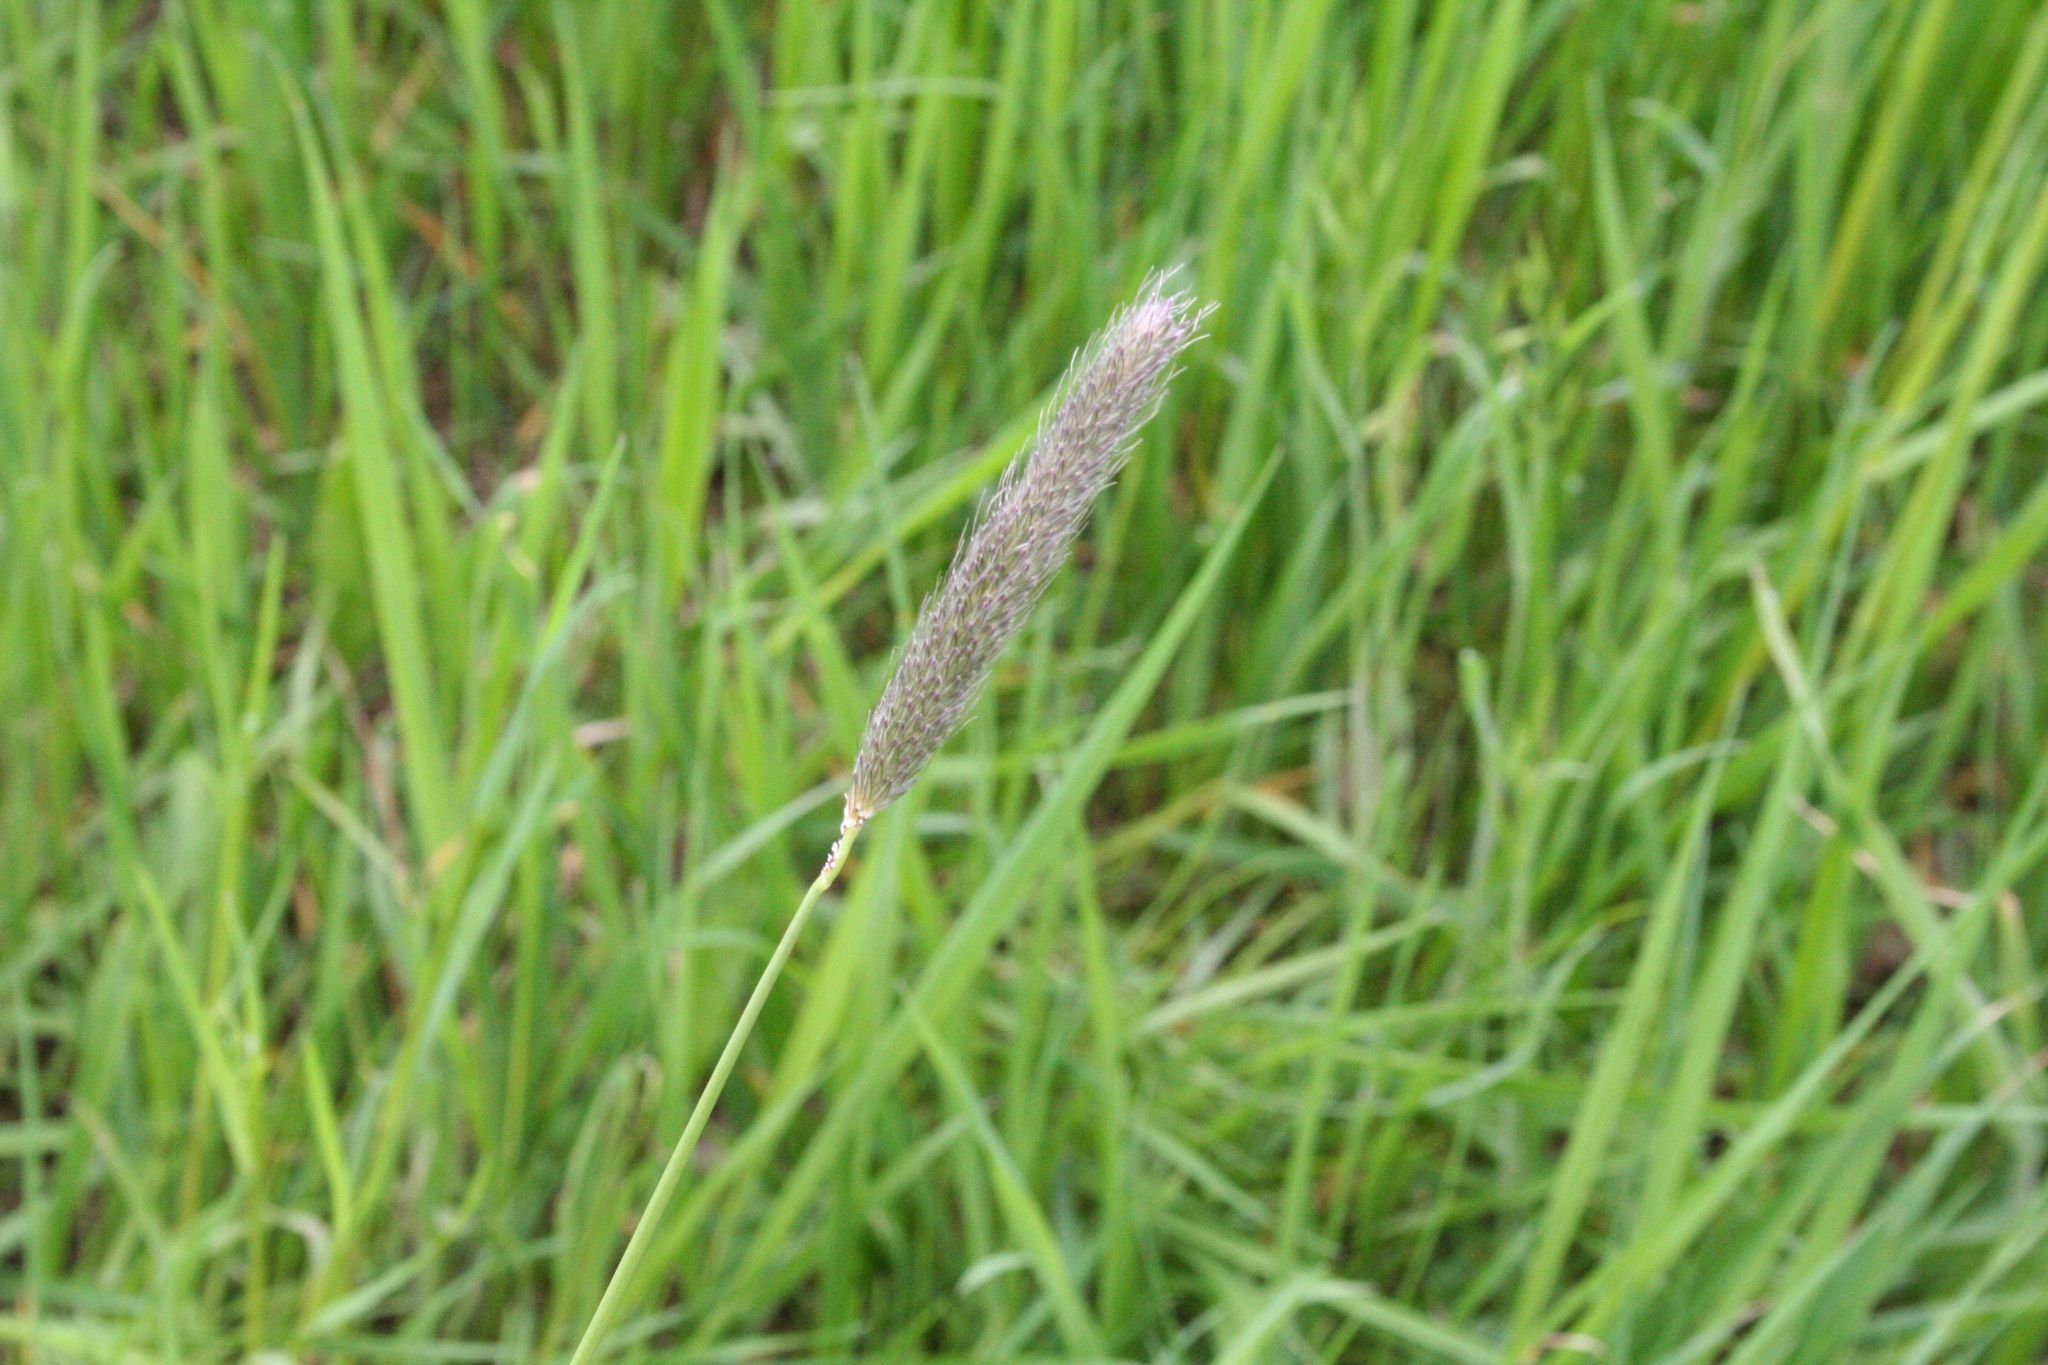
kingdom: Plantae
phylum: Tracheophyta
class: Liliopsida
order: Poales
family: Poaceae
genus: Alopecurus
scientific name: Alopecurus pratensis
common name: Meadow foxtail
